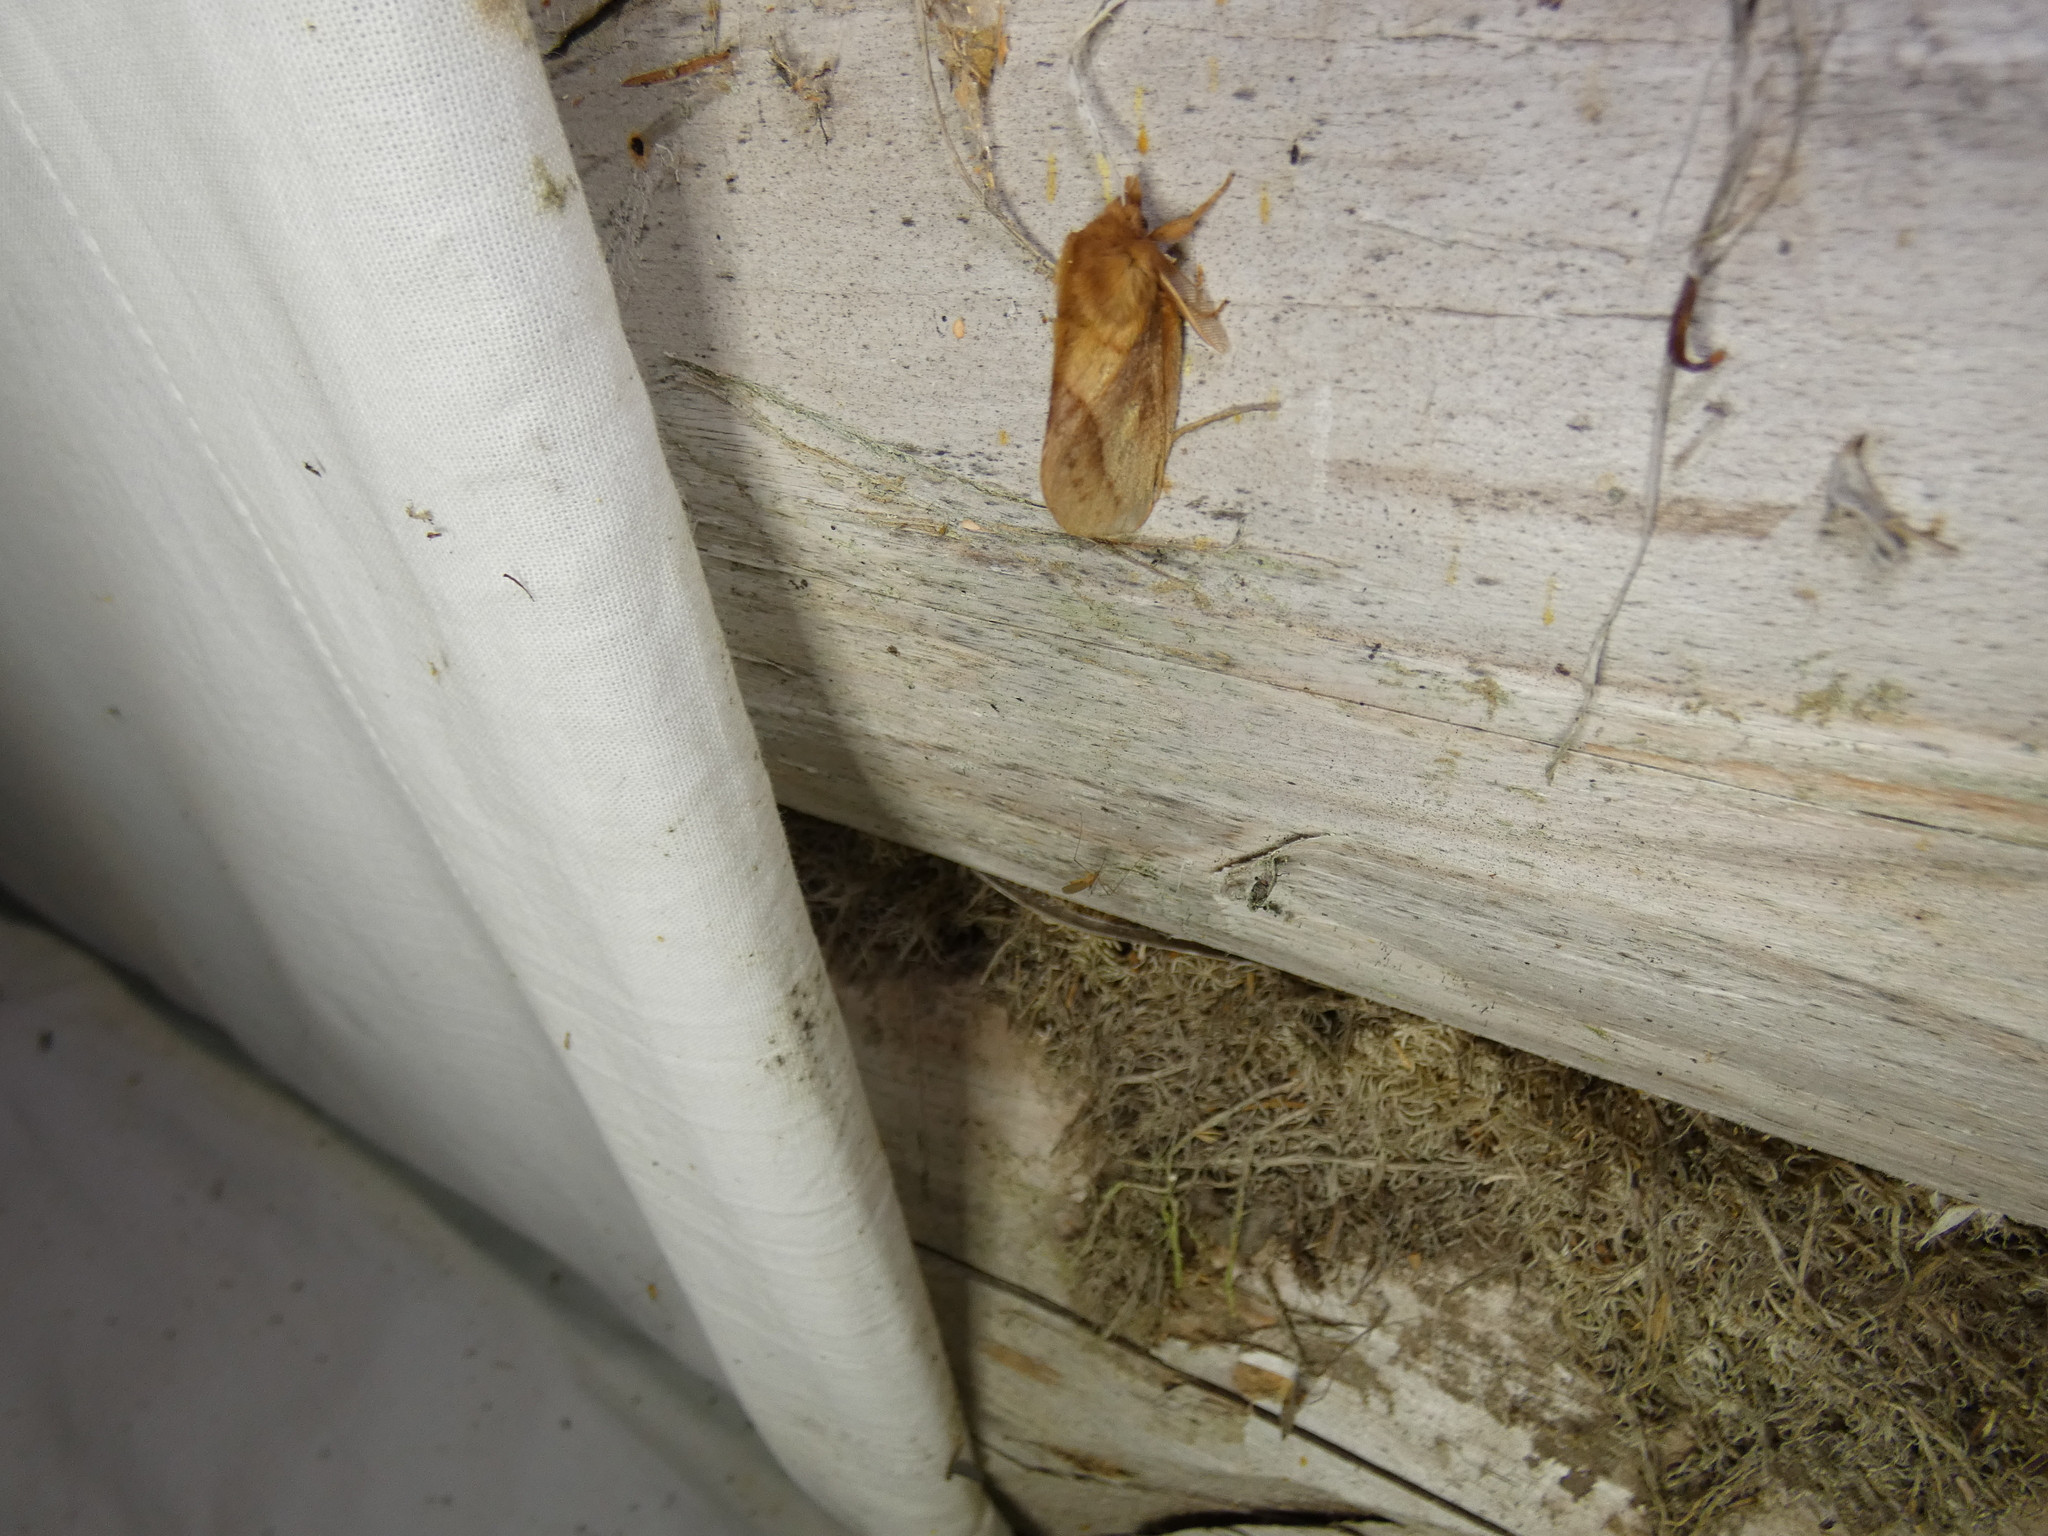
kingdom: Animalia
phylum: Arthropoda
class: Insecta
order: Lepidoptera
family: Lasiocampidae
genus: Euthrix
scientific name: Euthrix potatoria
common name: Drinker
